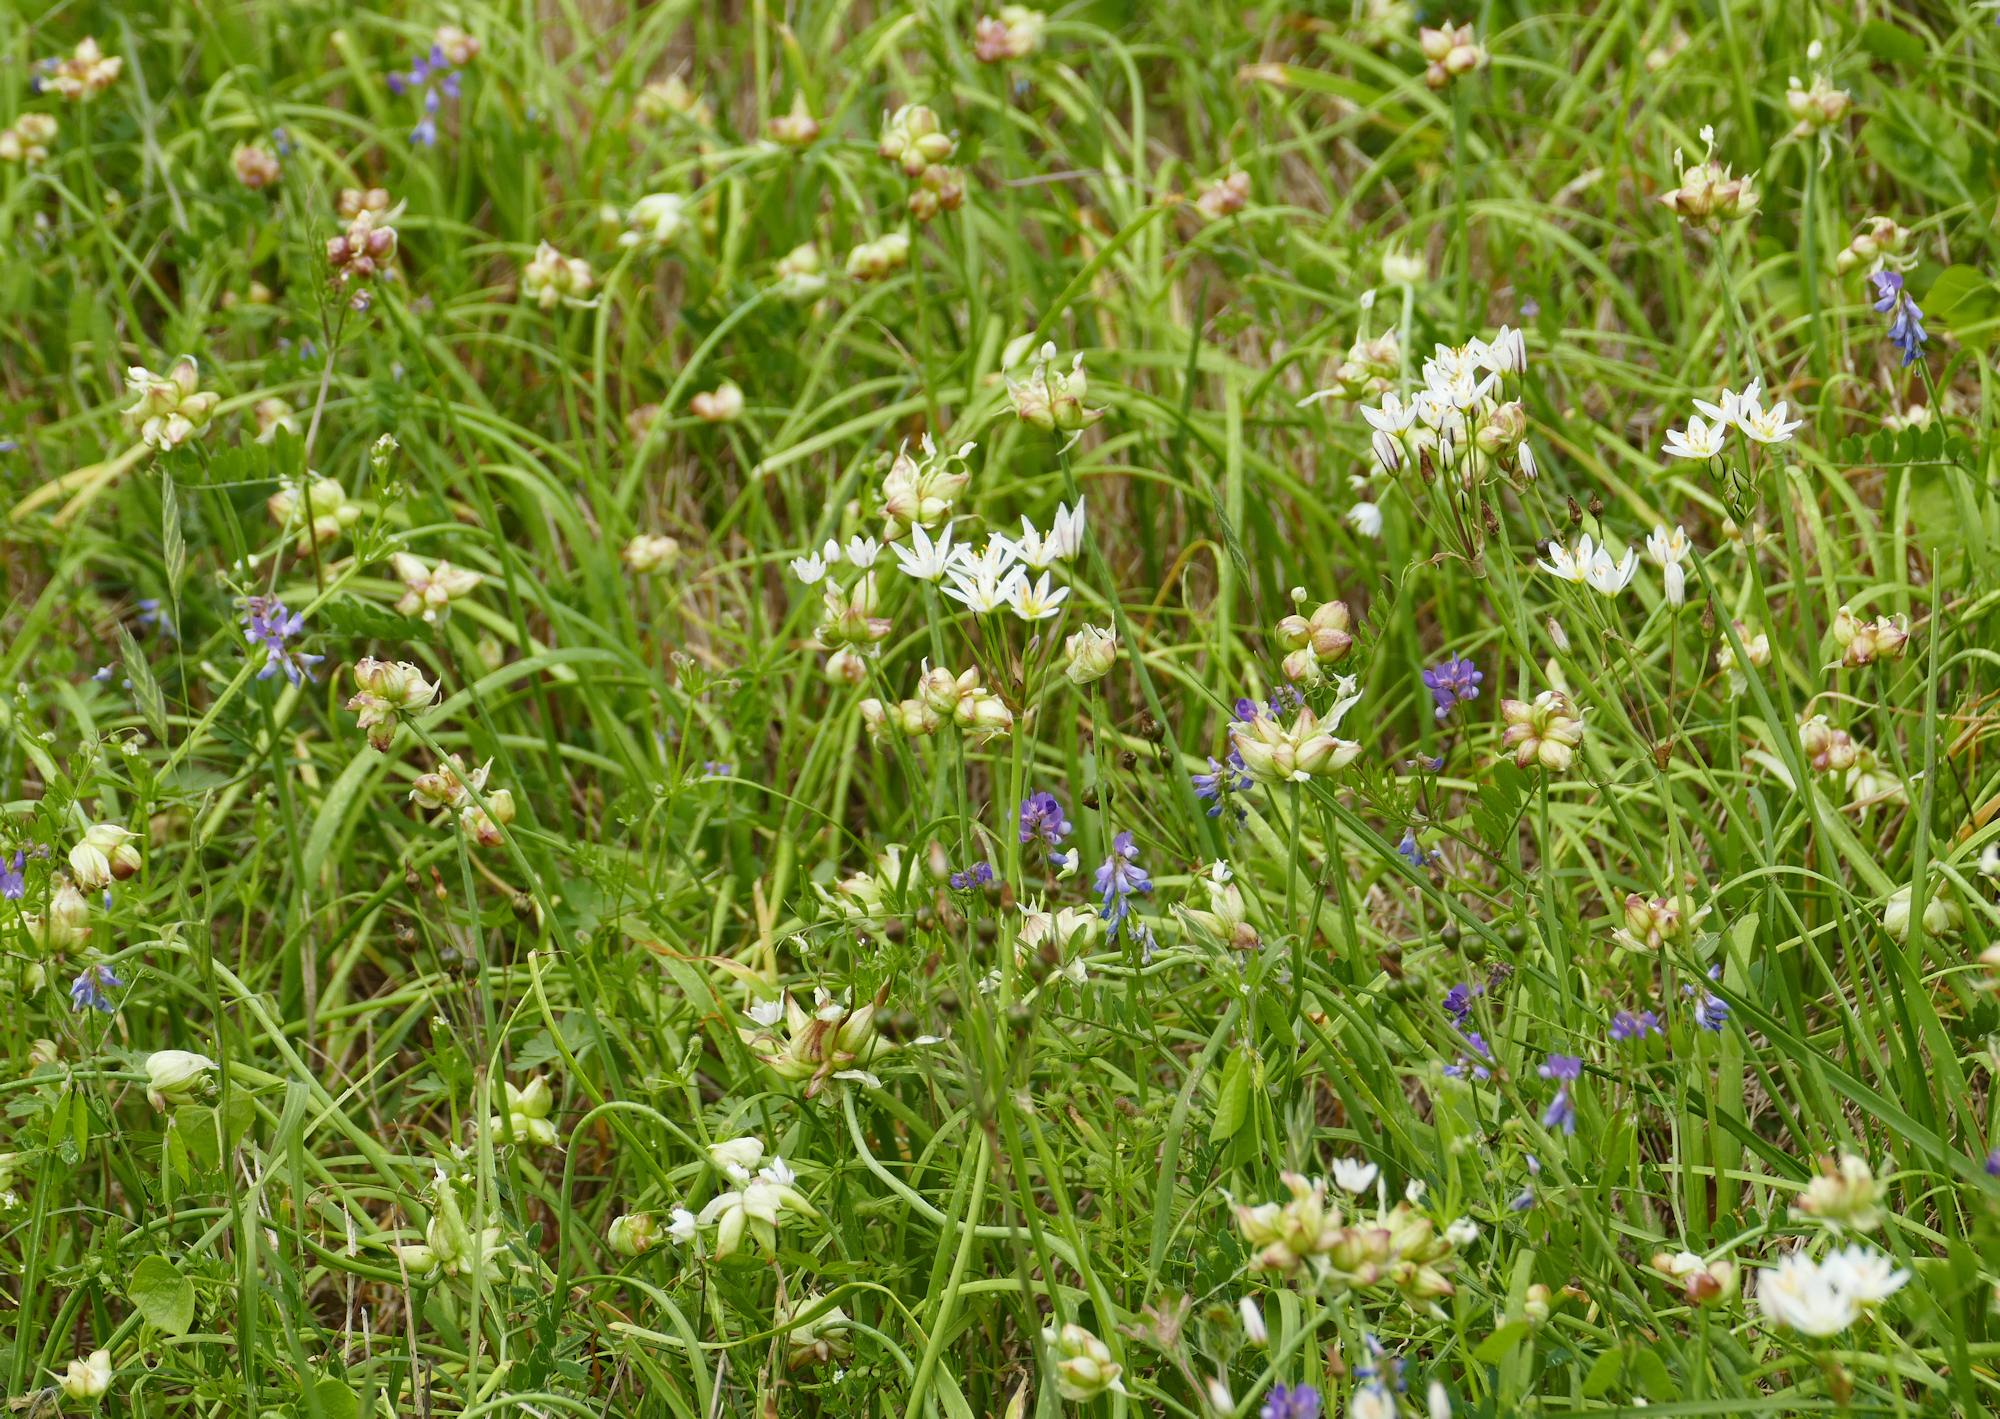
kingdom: Plantae
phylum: Tracheophyta
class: Liliopsida
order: Asparagales
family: Amaryllidaceae
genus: Nothoscordum
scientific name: Nothoscordum bivalve
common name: Crow-poison
